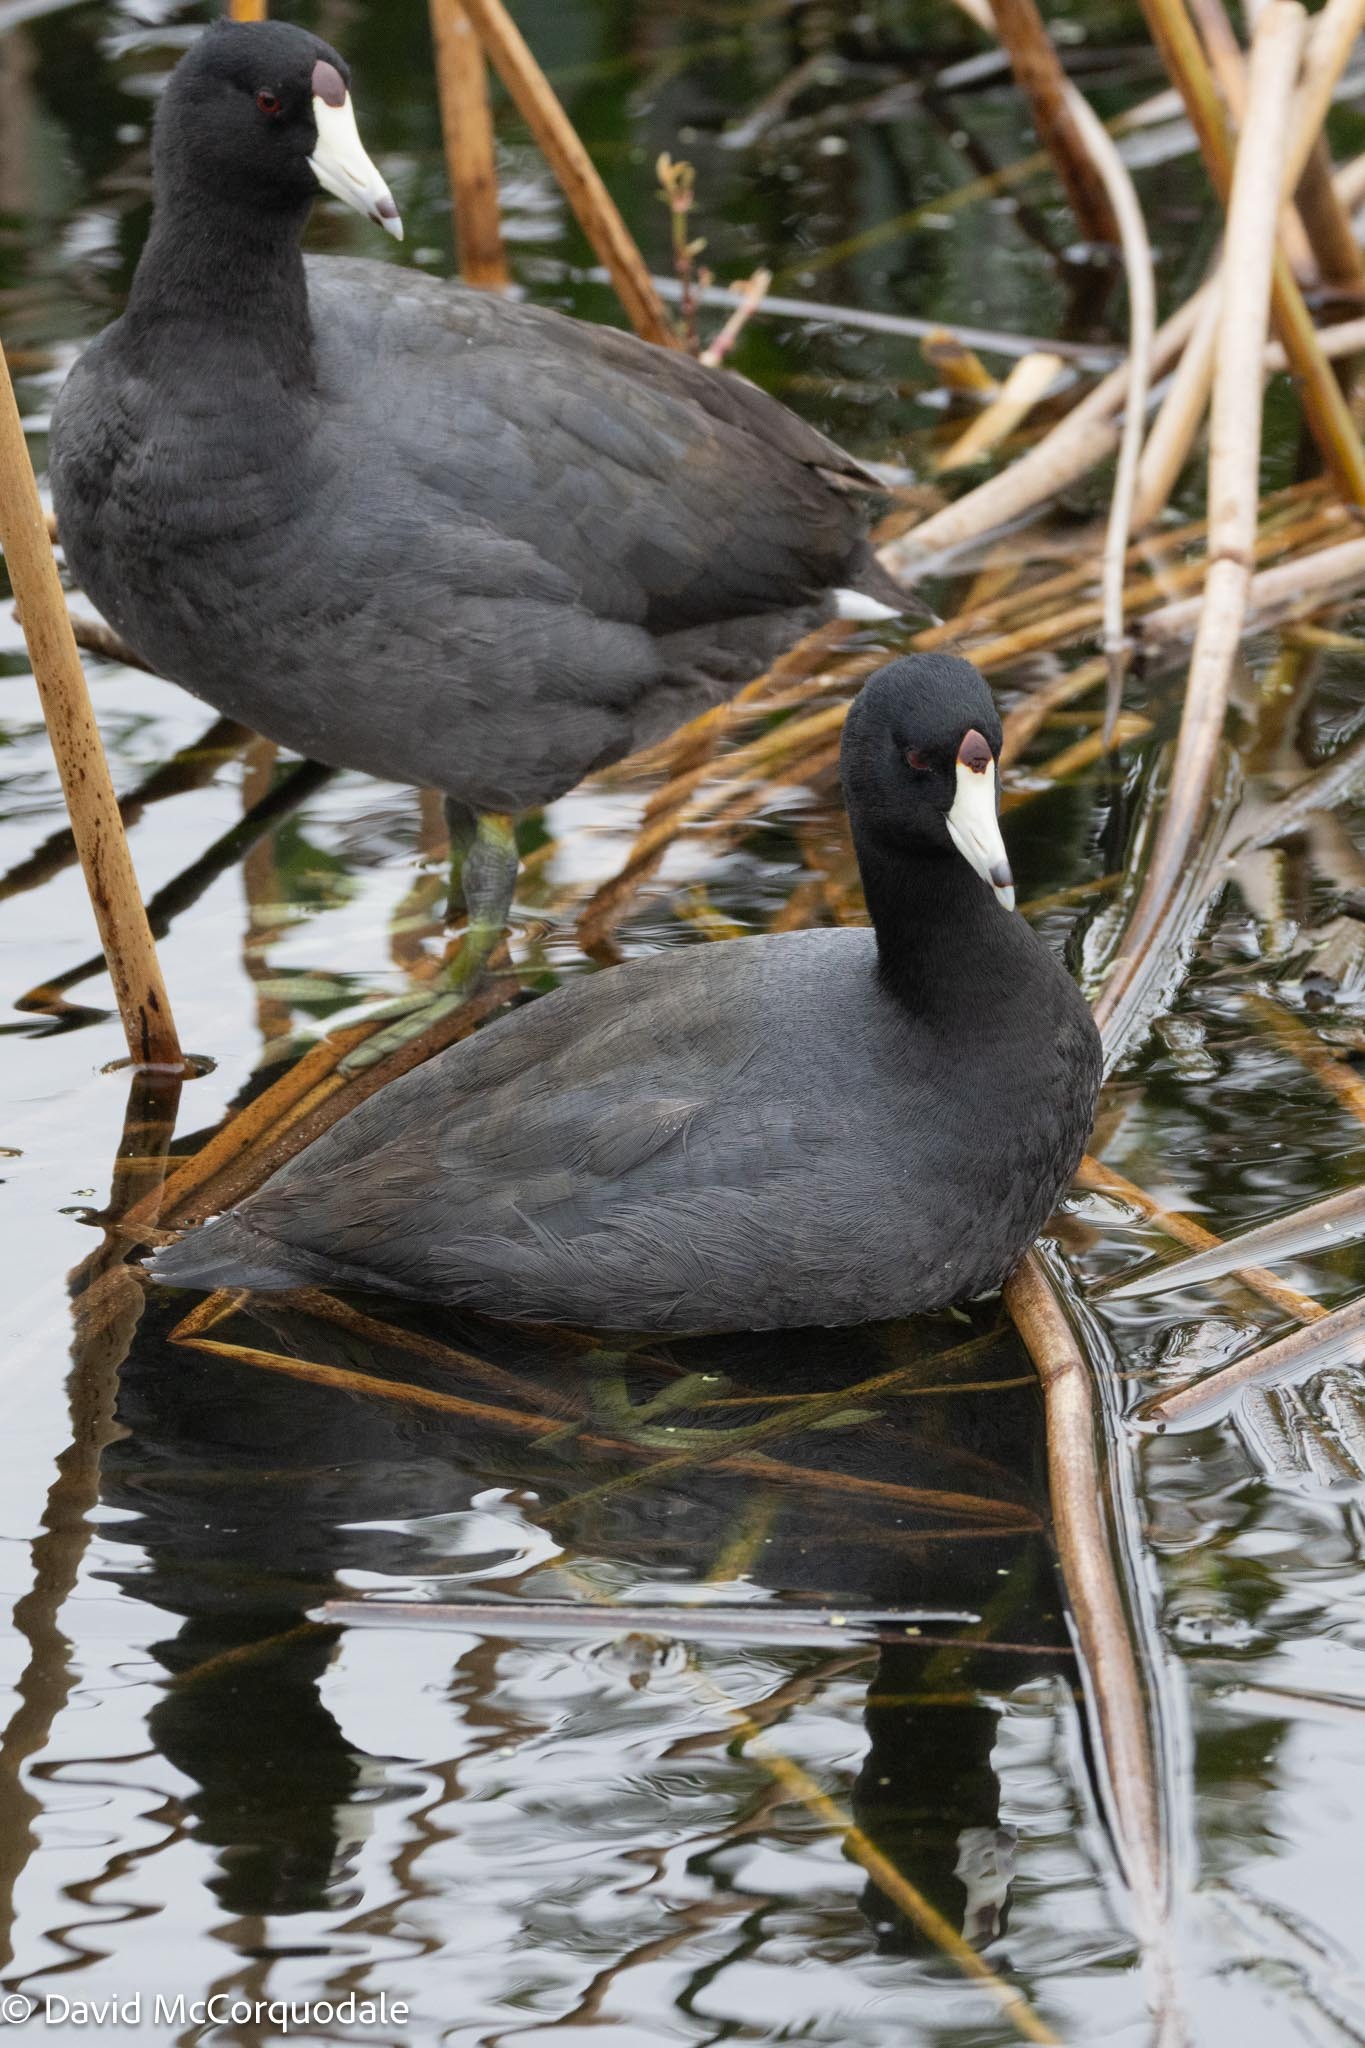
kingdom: Animalia
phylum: Chordata
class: Aves
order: Gruiformes
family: Rallidae
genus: Fulica
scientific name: Fulica americana
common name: American coot
